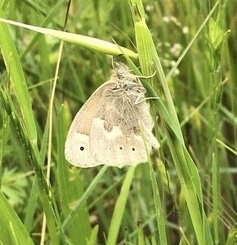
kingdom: Animalia
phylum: Arthropoda
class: Insecta
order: Lepidoptera
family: Nymphalidae
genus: Coenonympha
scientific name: Coenonympha california
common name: Common ringlet
